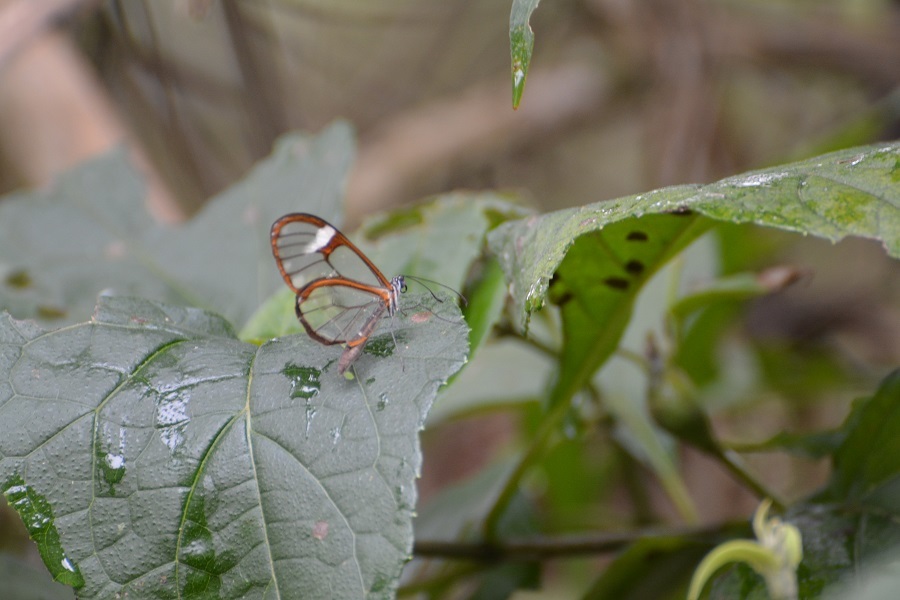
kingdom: Animalia
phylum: Arthropoda
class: Insecta
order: Lepidoptera
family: Nymphalidae
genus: Episcada
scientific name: Episcada salvinia
